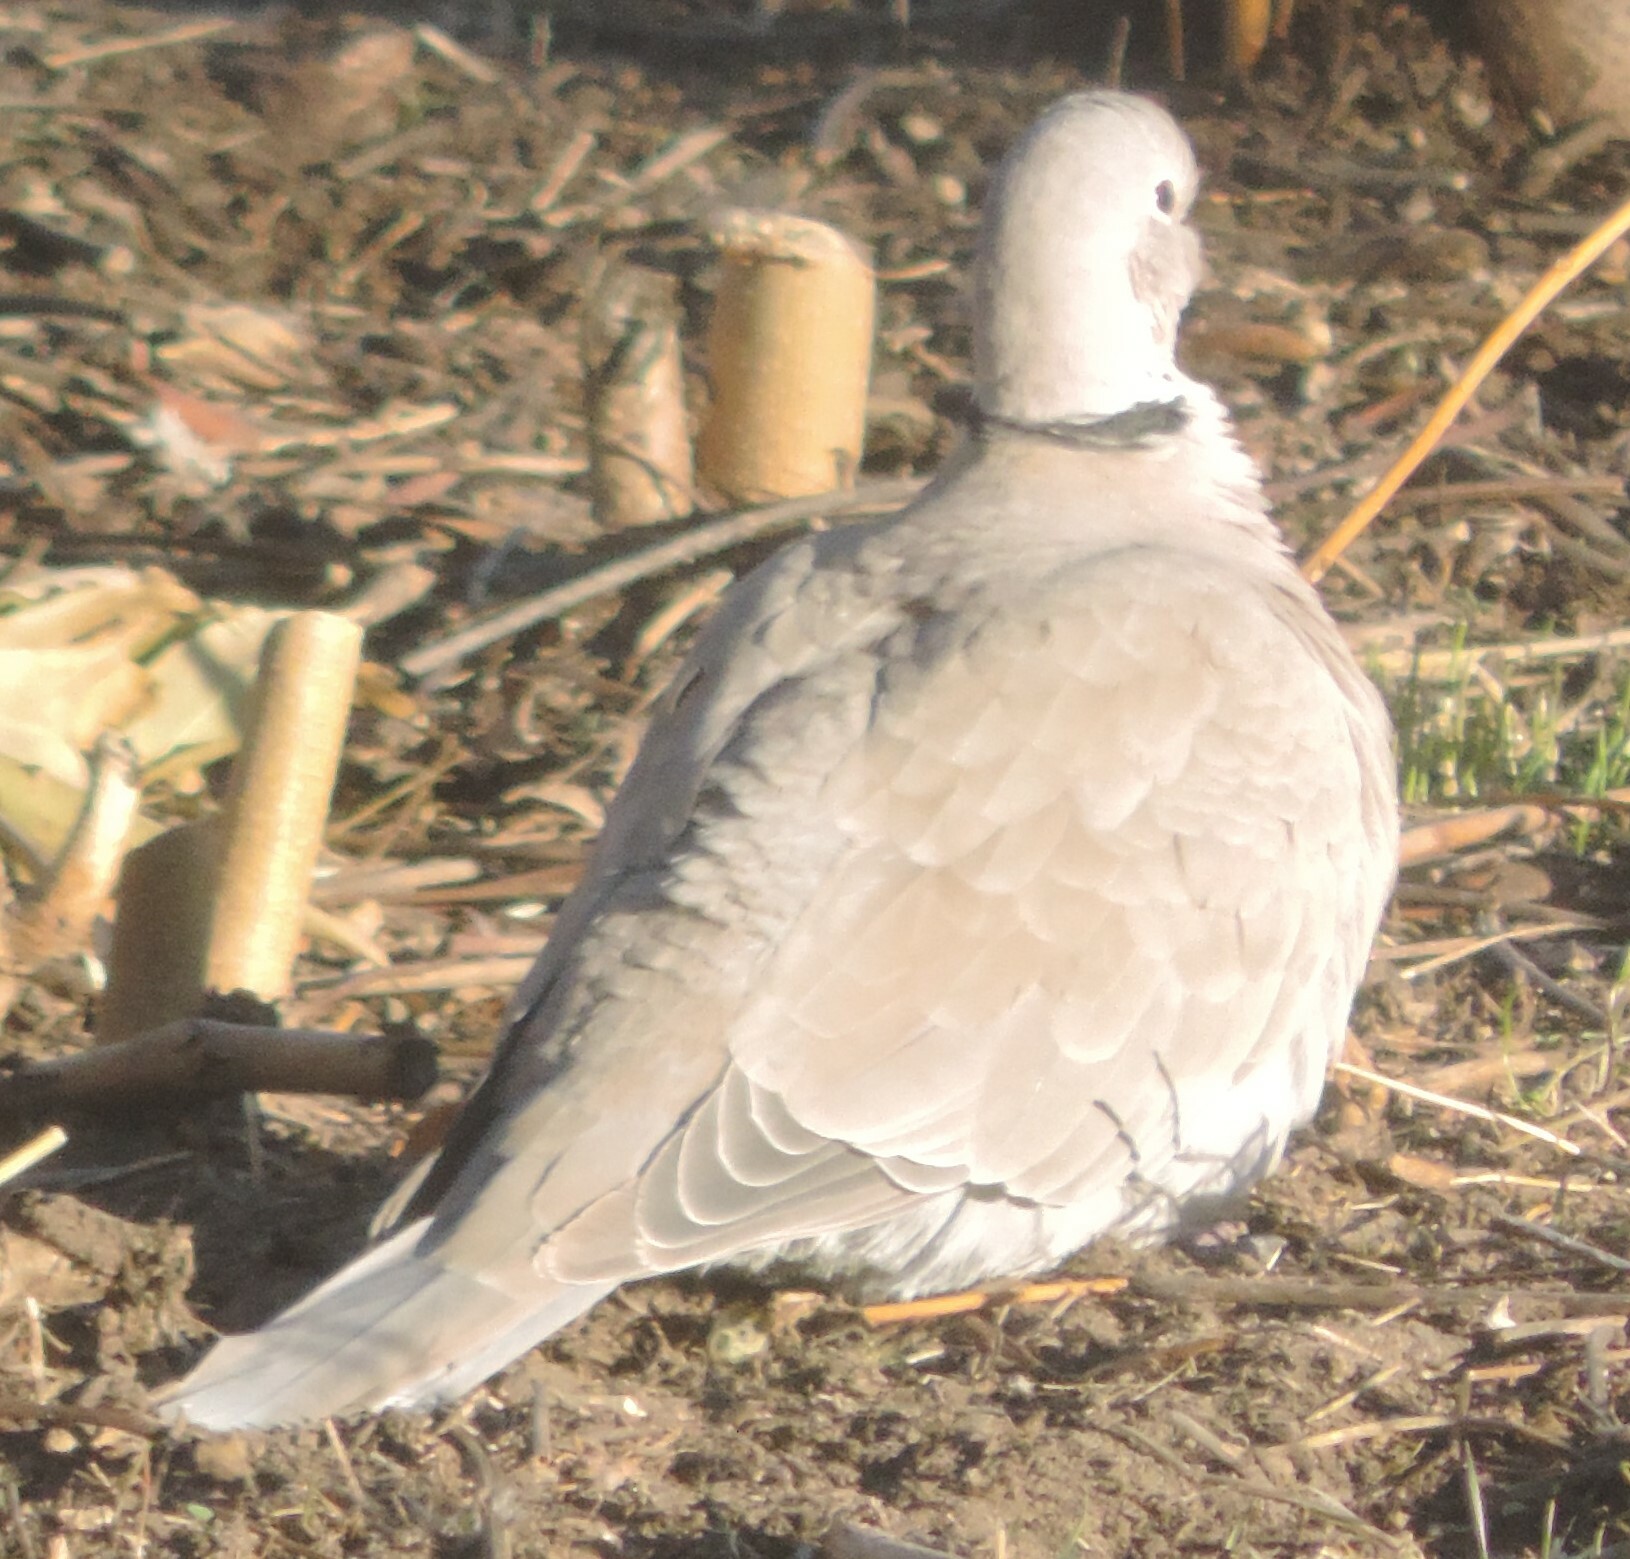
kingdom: Animalia
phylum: Chordata
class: Aves
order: Columbiformes
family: Columbidae
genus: Streptopelia
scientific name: Streptopelia decaocto
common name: Eurasian collared dove
